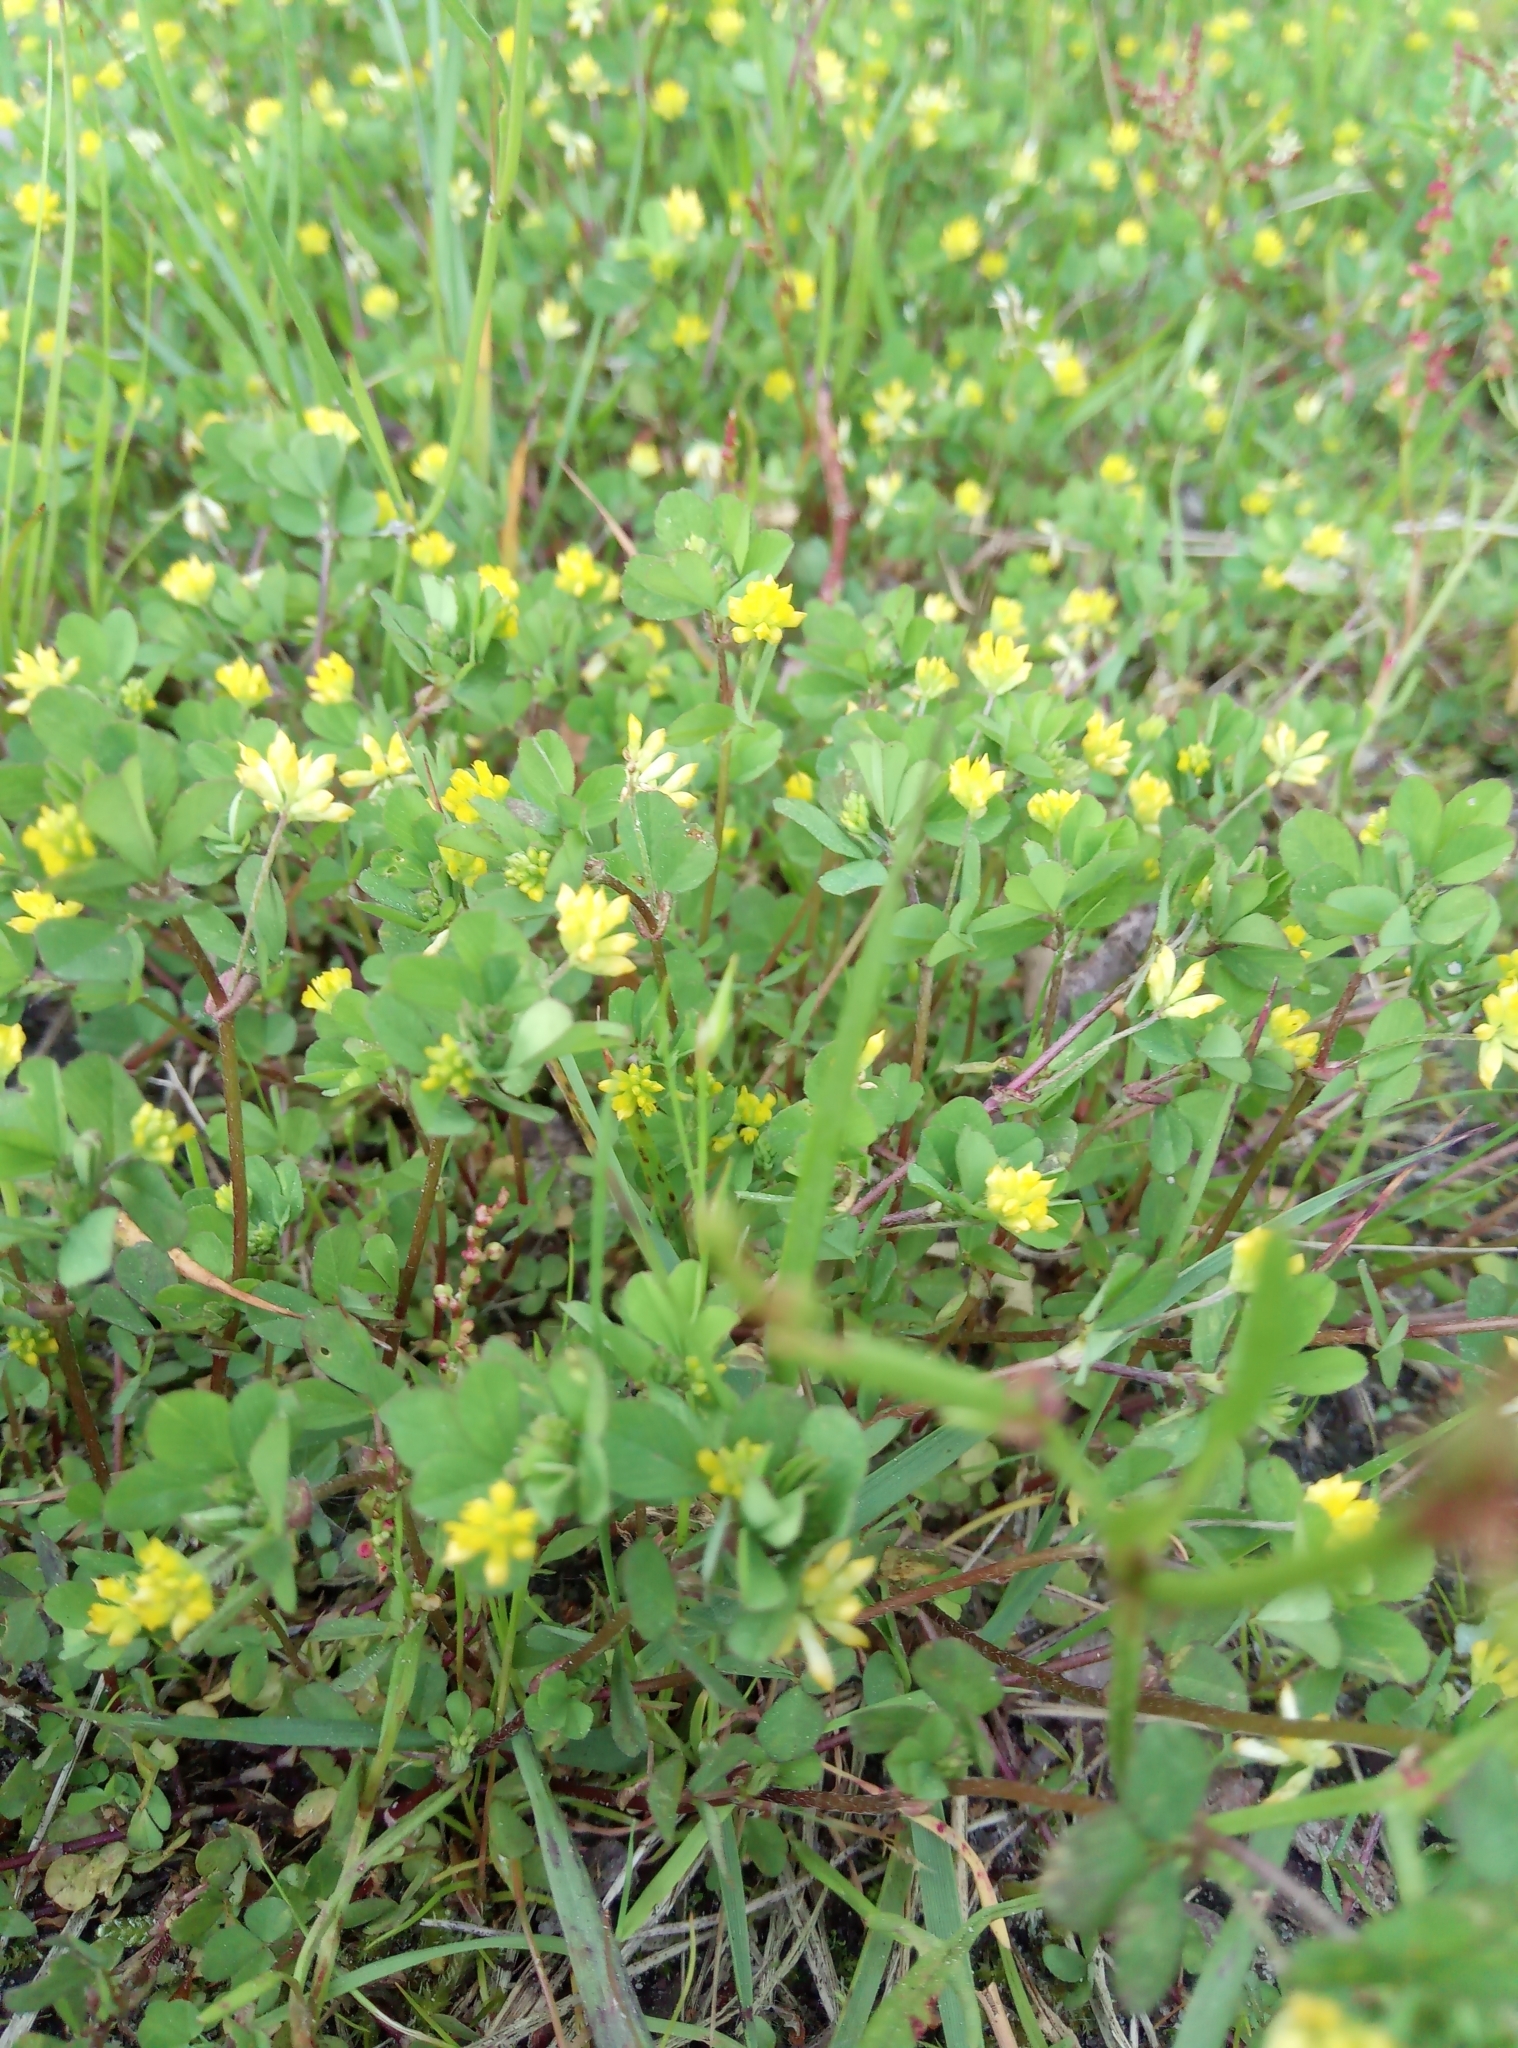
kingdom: Plantae
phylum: Tracheophyta
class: Magnoliopsida
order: Fabales
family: Fabaceae
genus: Trifolium
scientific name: Trifolium dubium
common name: Suckling clover
